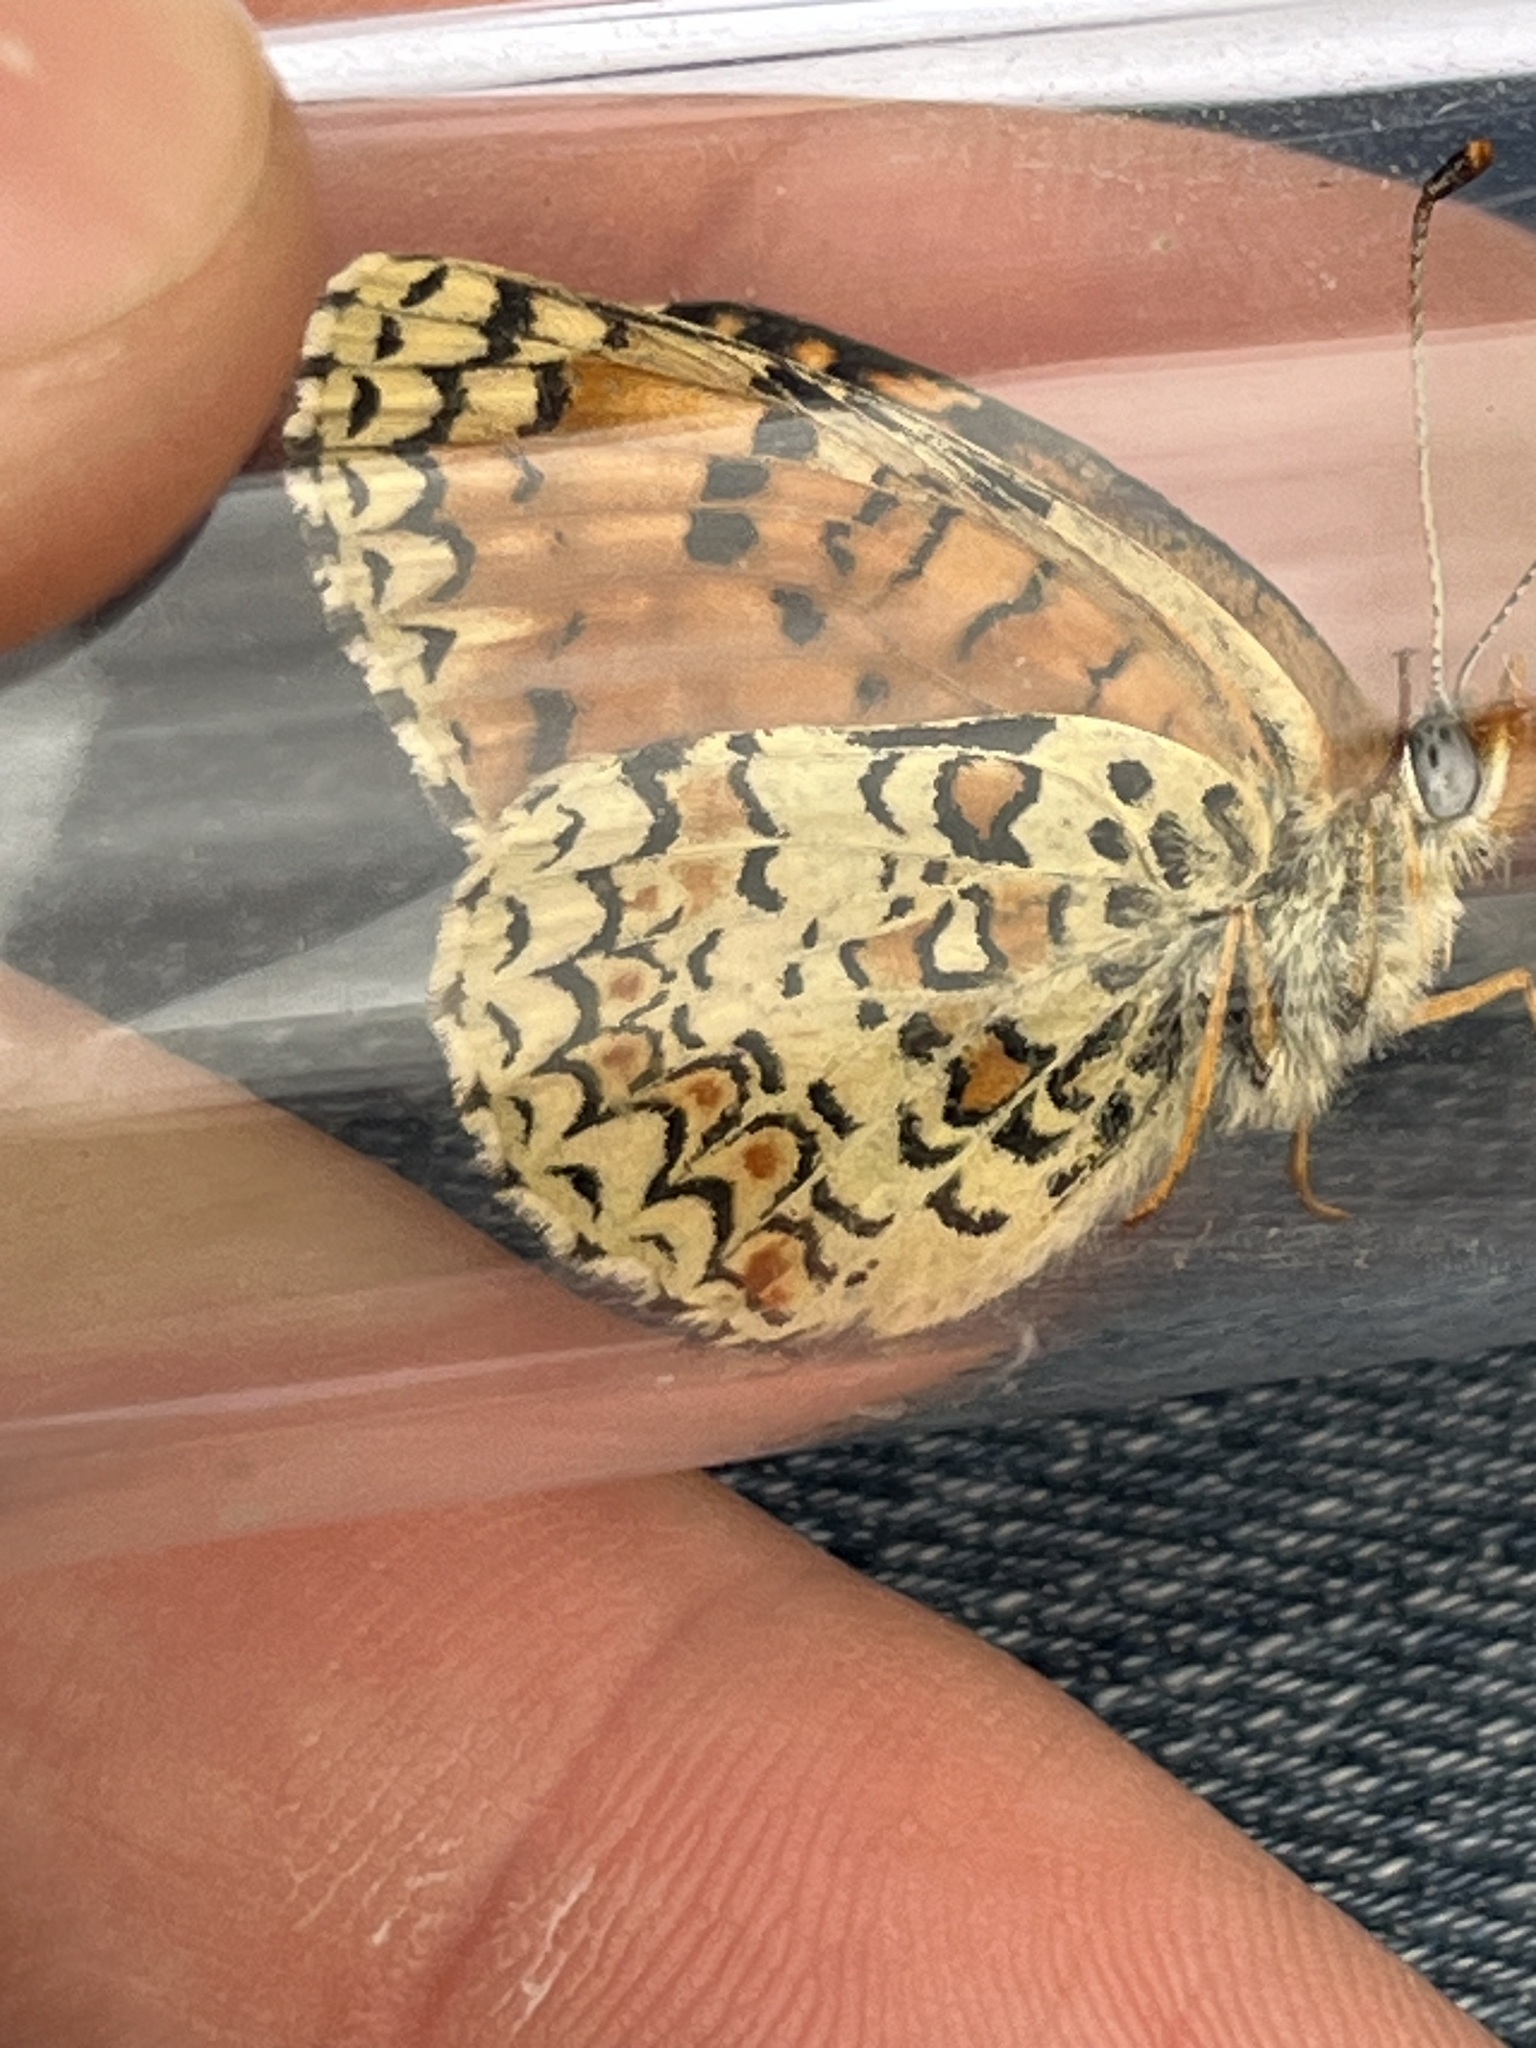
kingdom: Animalia
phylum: Arthropoda
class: Insecta
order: Lepidoptera
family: Nymphalidae
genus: Melitaea
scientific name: Melitaea
